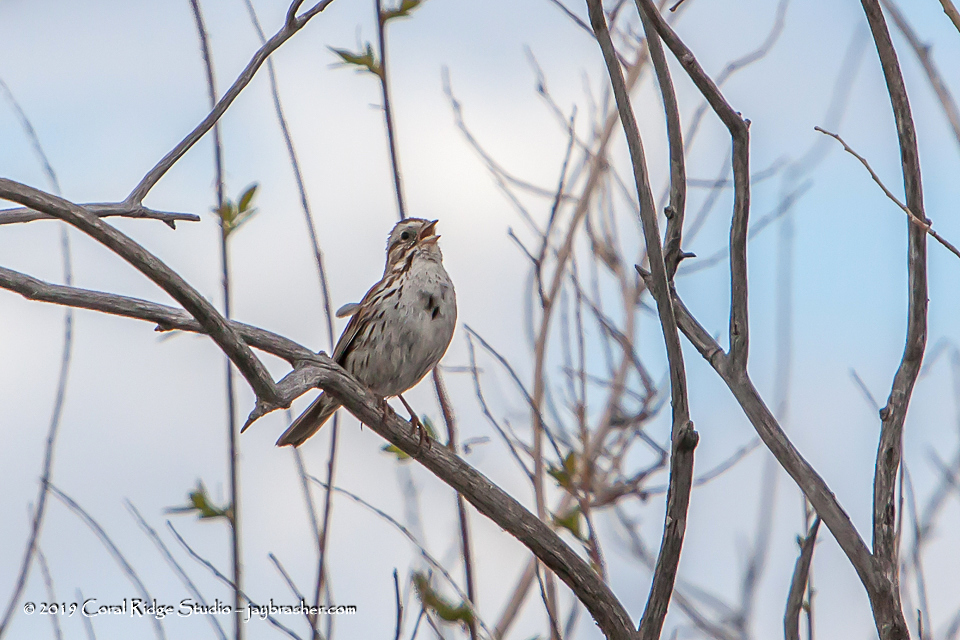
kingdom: Animalia
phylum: Chordata
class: Aves
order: Passeriformes
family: Passerellidae
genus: Melospiza
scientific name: Melospiza melodia
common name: Song sparrow
